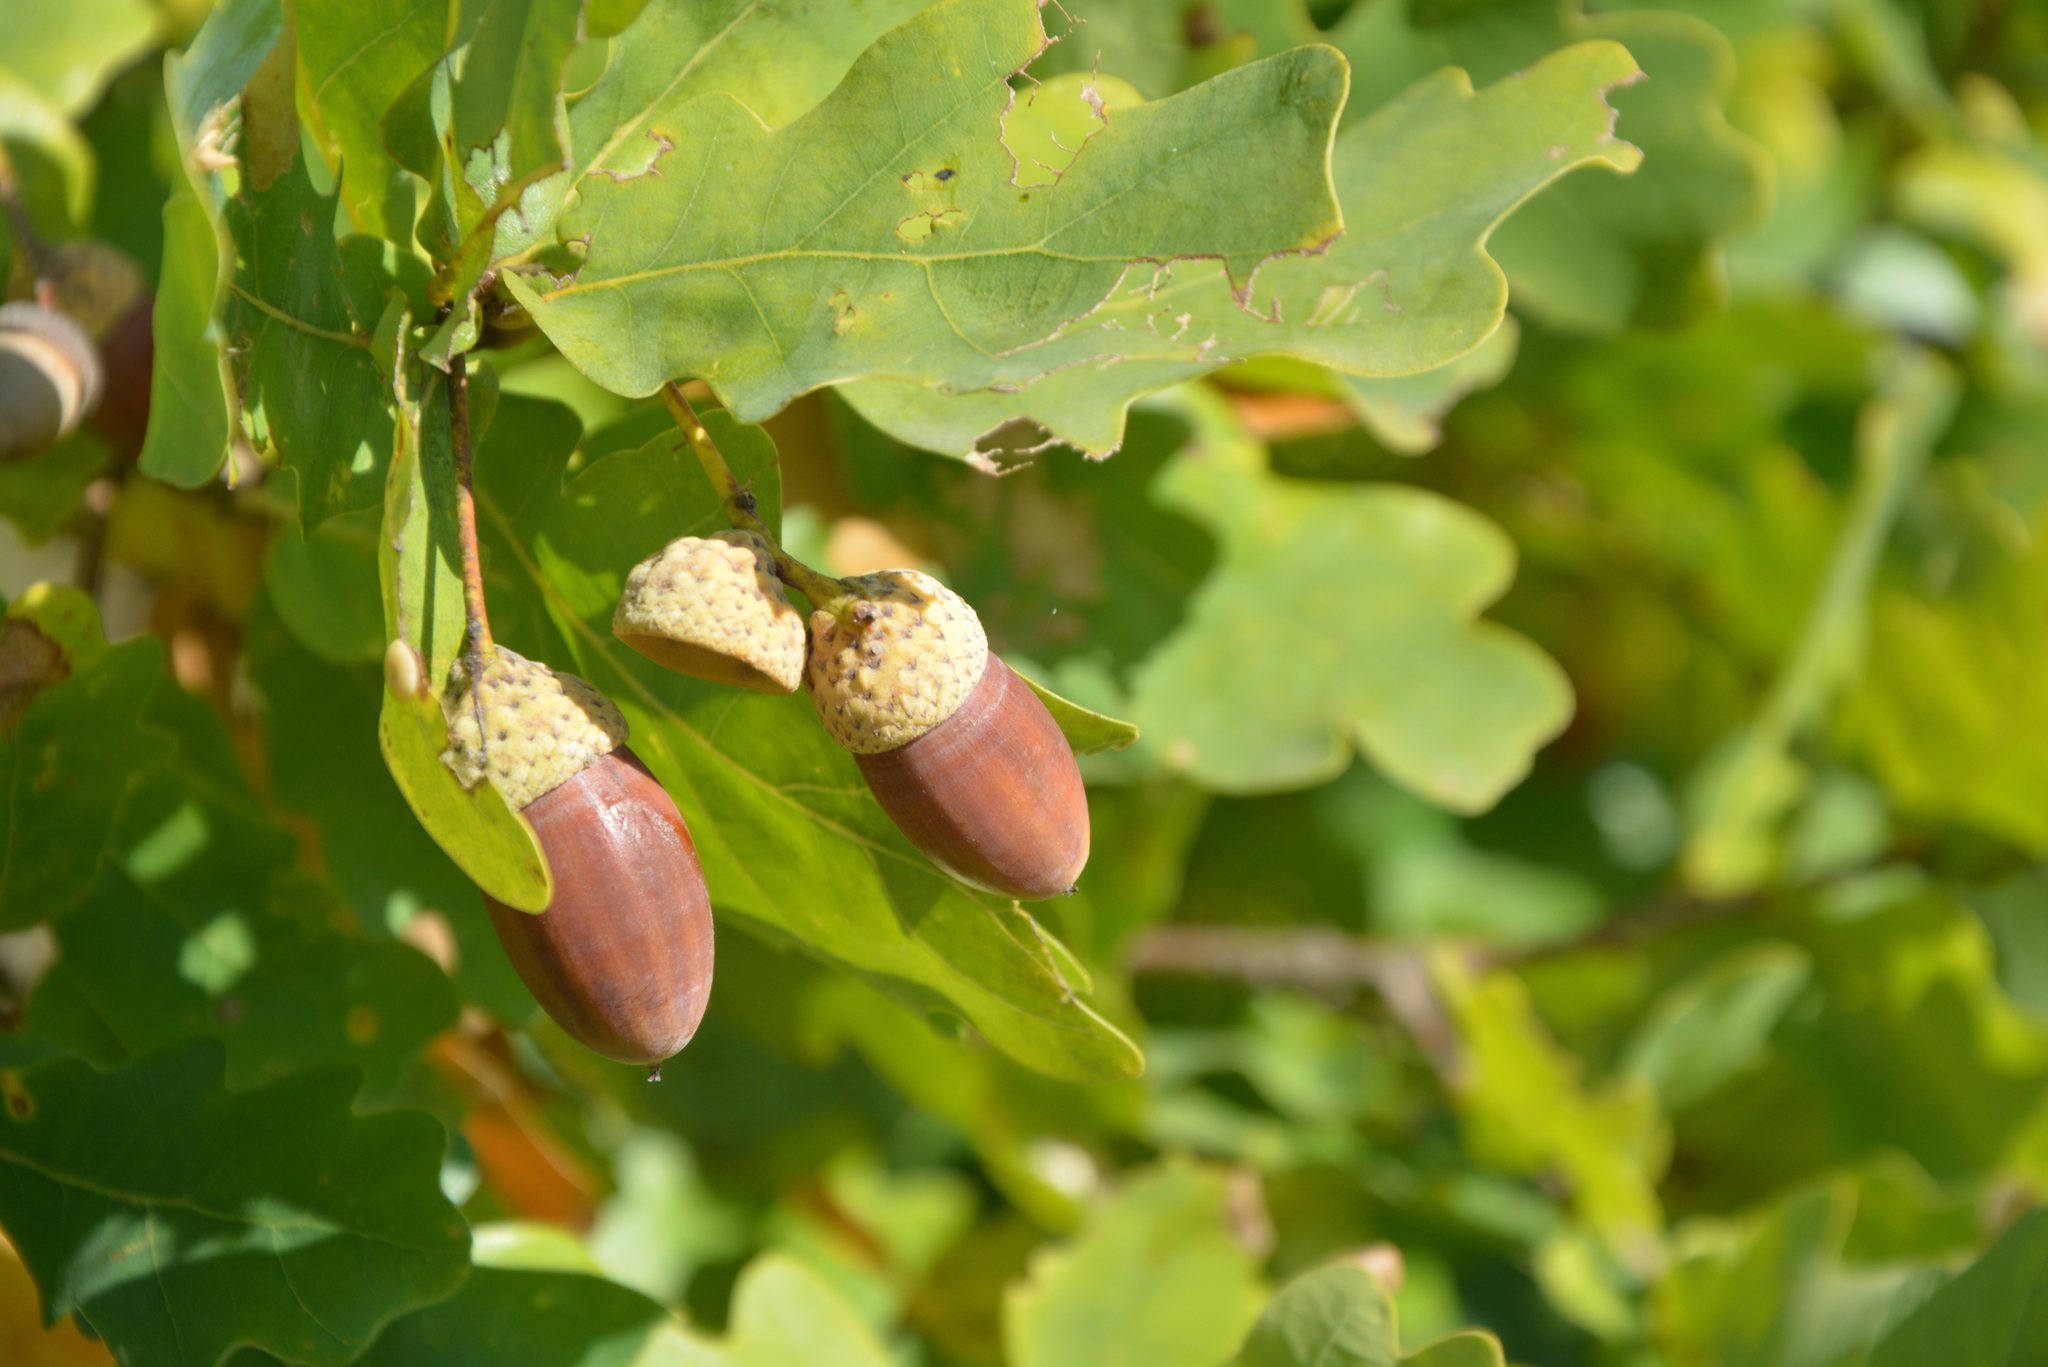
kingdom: Plantae
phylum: Tracheophyta
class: Magnoliopsida
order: Fagales
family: Fagaceae
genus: Quercus
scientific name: Quercus petraea
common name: Sessile oak
